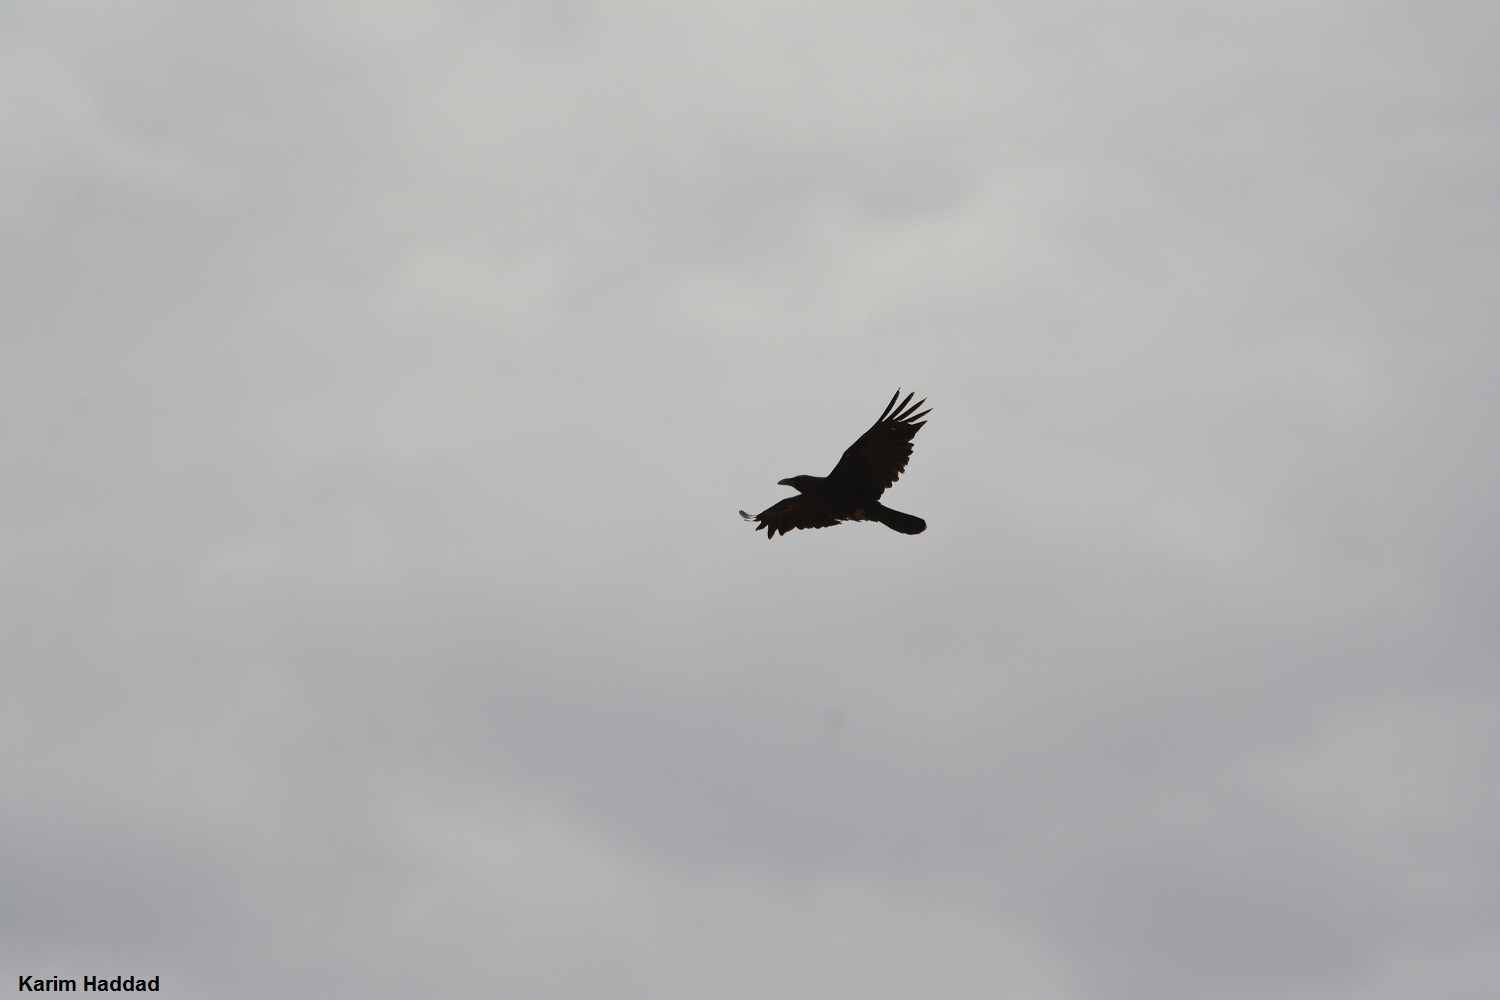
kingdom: Animalia
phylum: Chordata
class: Aves
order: Passeriformes
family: Corvidae
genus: Corvus
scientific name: Corvus ruficollis
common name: Brown-necked raven
